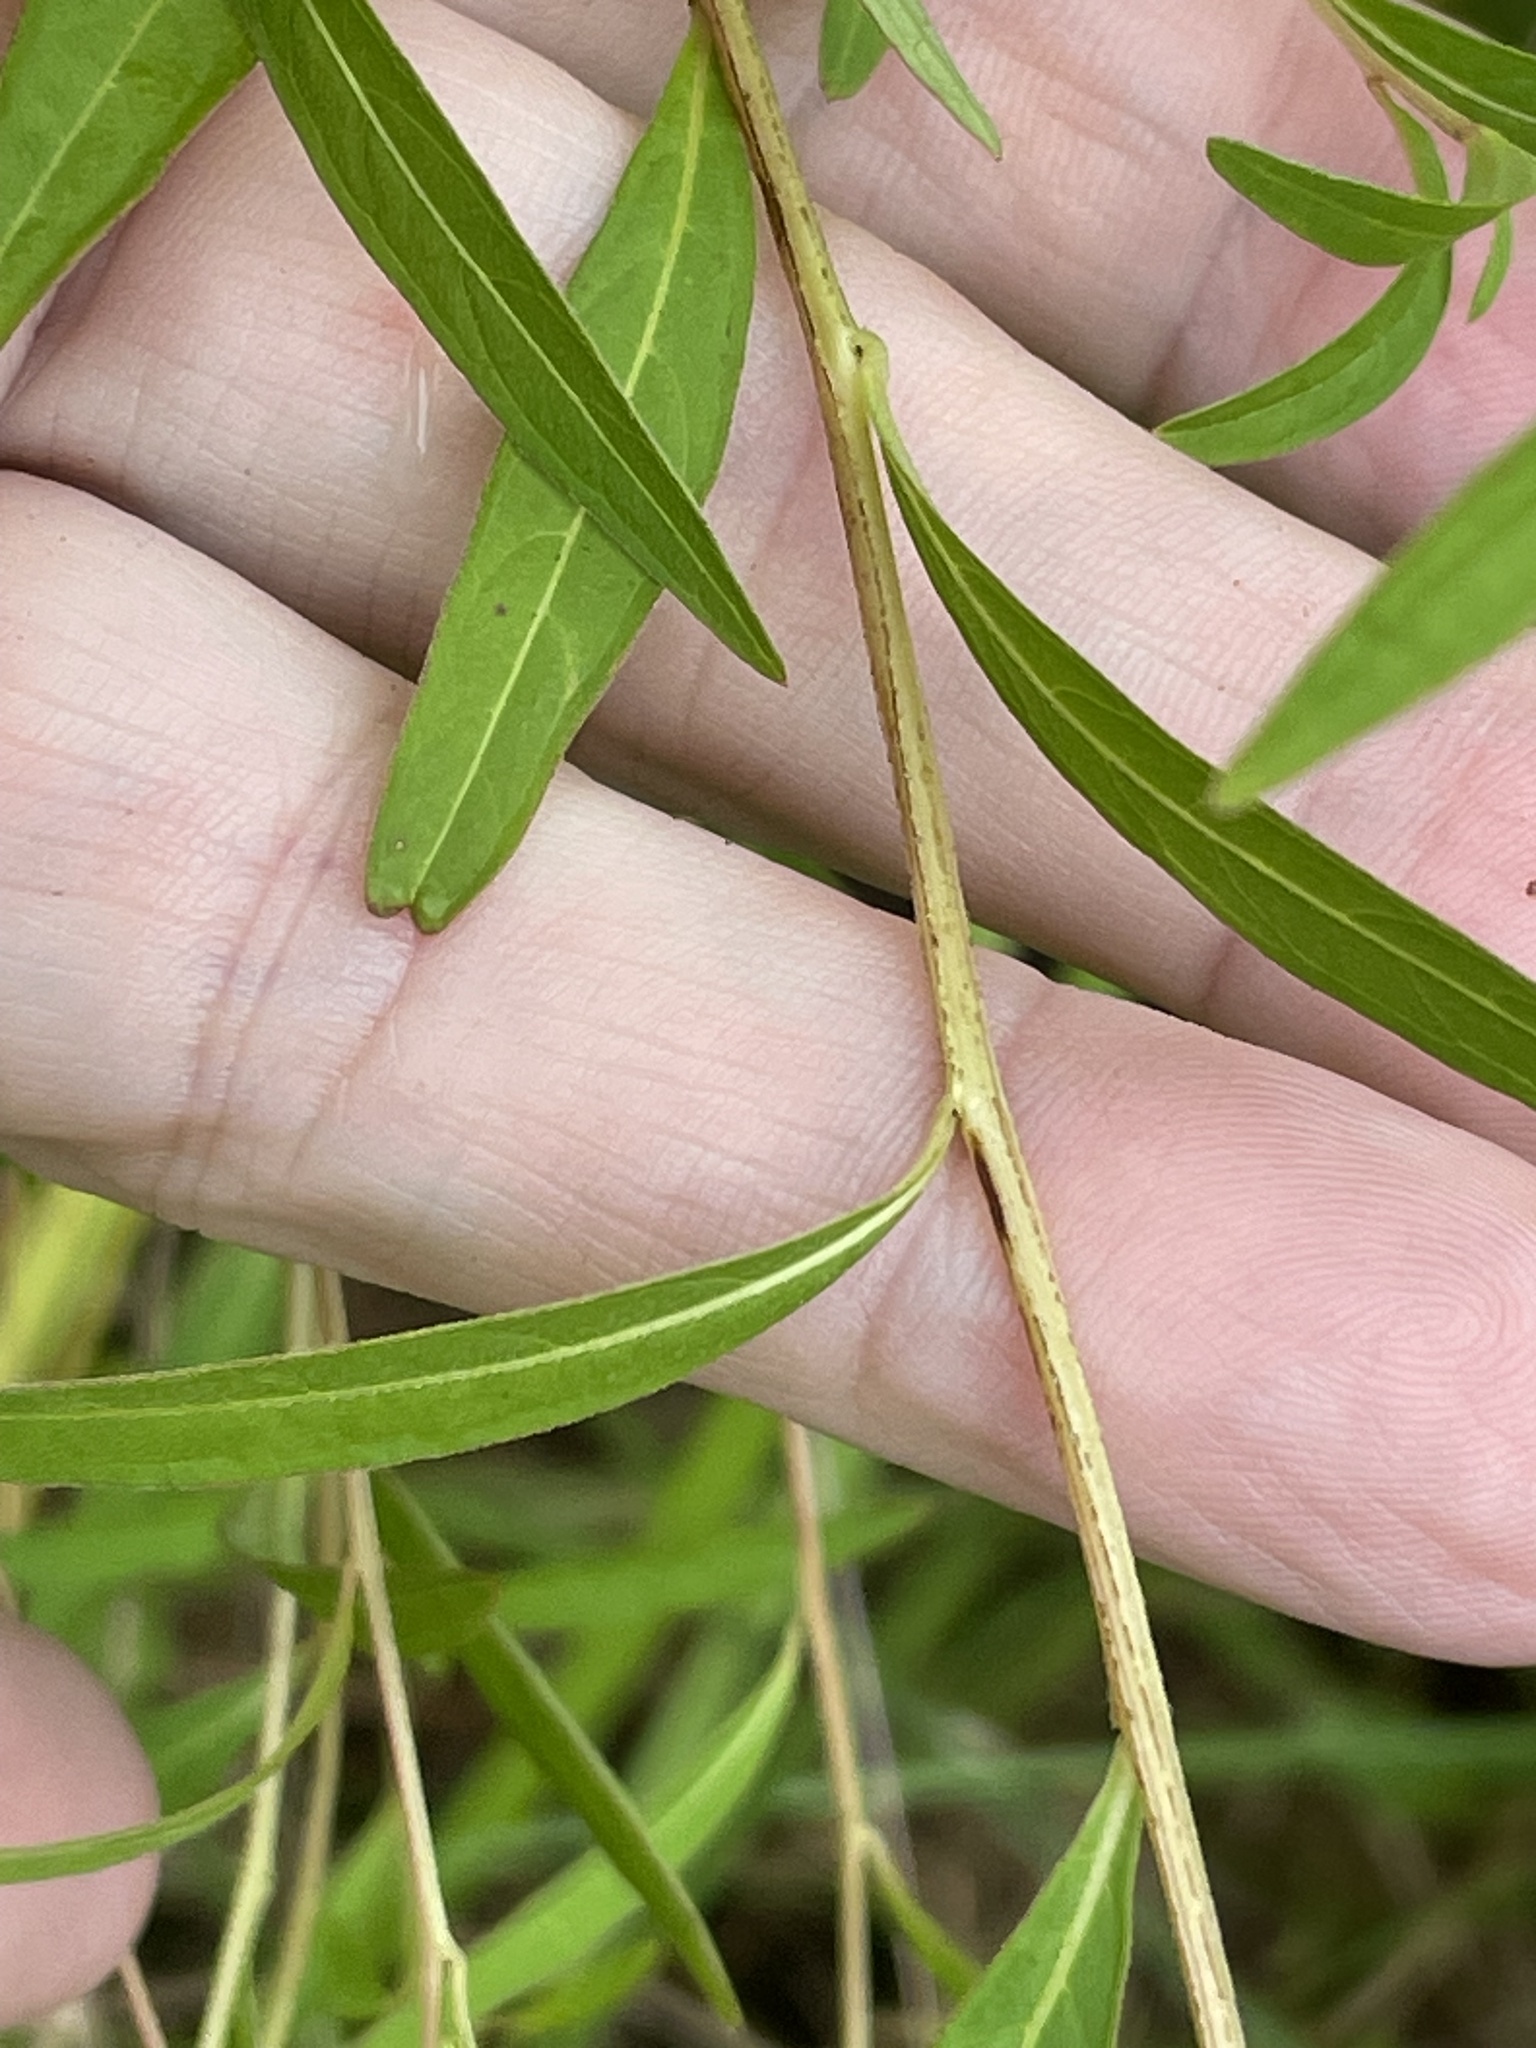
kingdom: Plantae
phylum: Tracheophyta
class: Magnoliopsida
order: Myrtales
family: Onagraceae
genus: Ludwigia
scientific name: Ludwigia alternifolia
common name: Rattlebox
